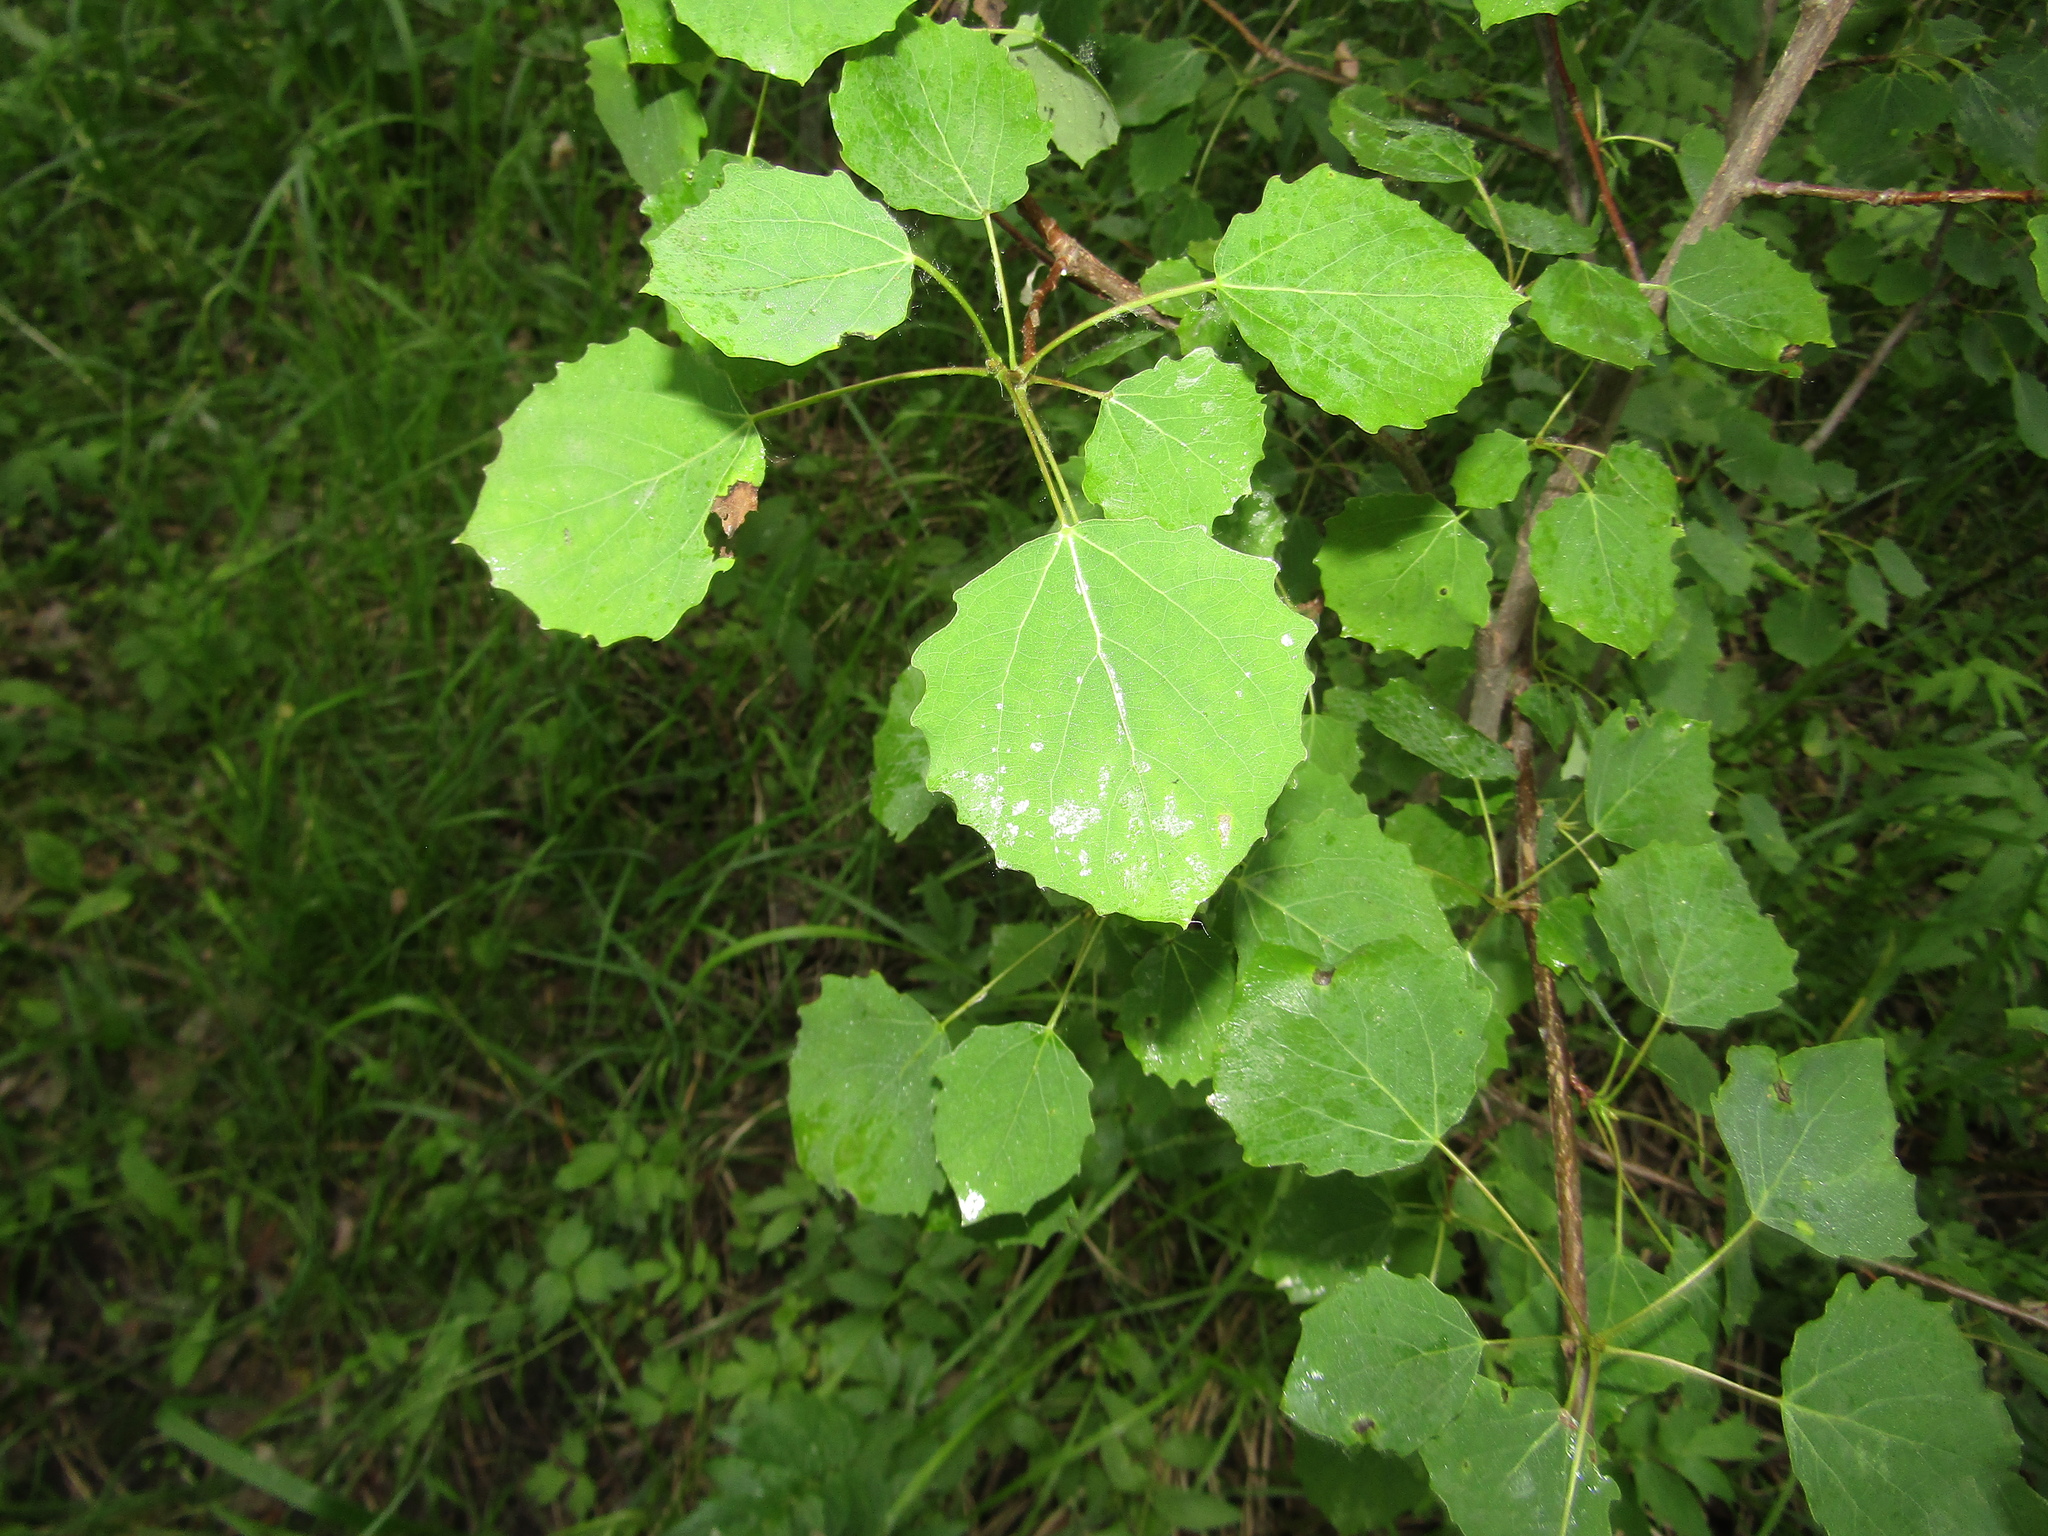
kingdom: Plantae
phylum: Tracheophyta
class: Magnoliopsida
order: Malpighiales
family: Salicaceae
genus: Populus
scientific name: Populus tremula
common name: European aspen
